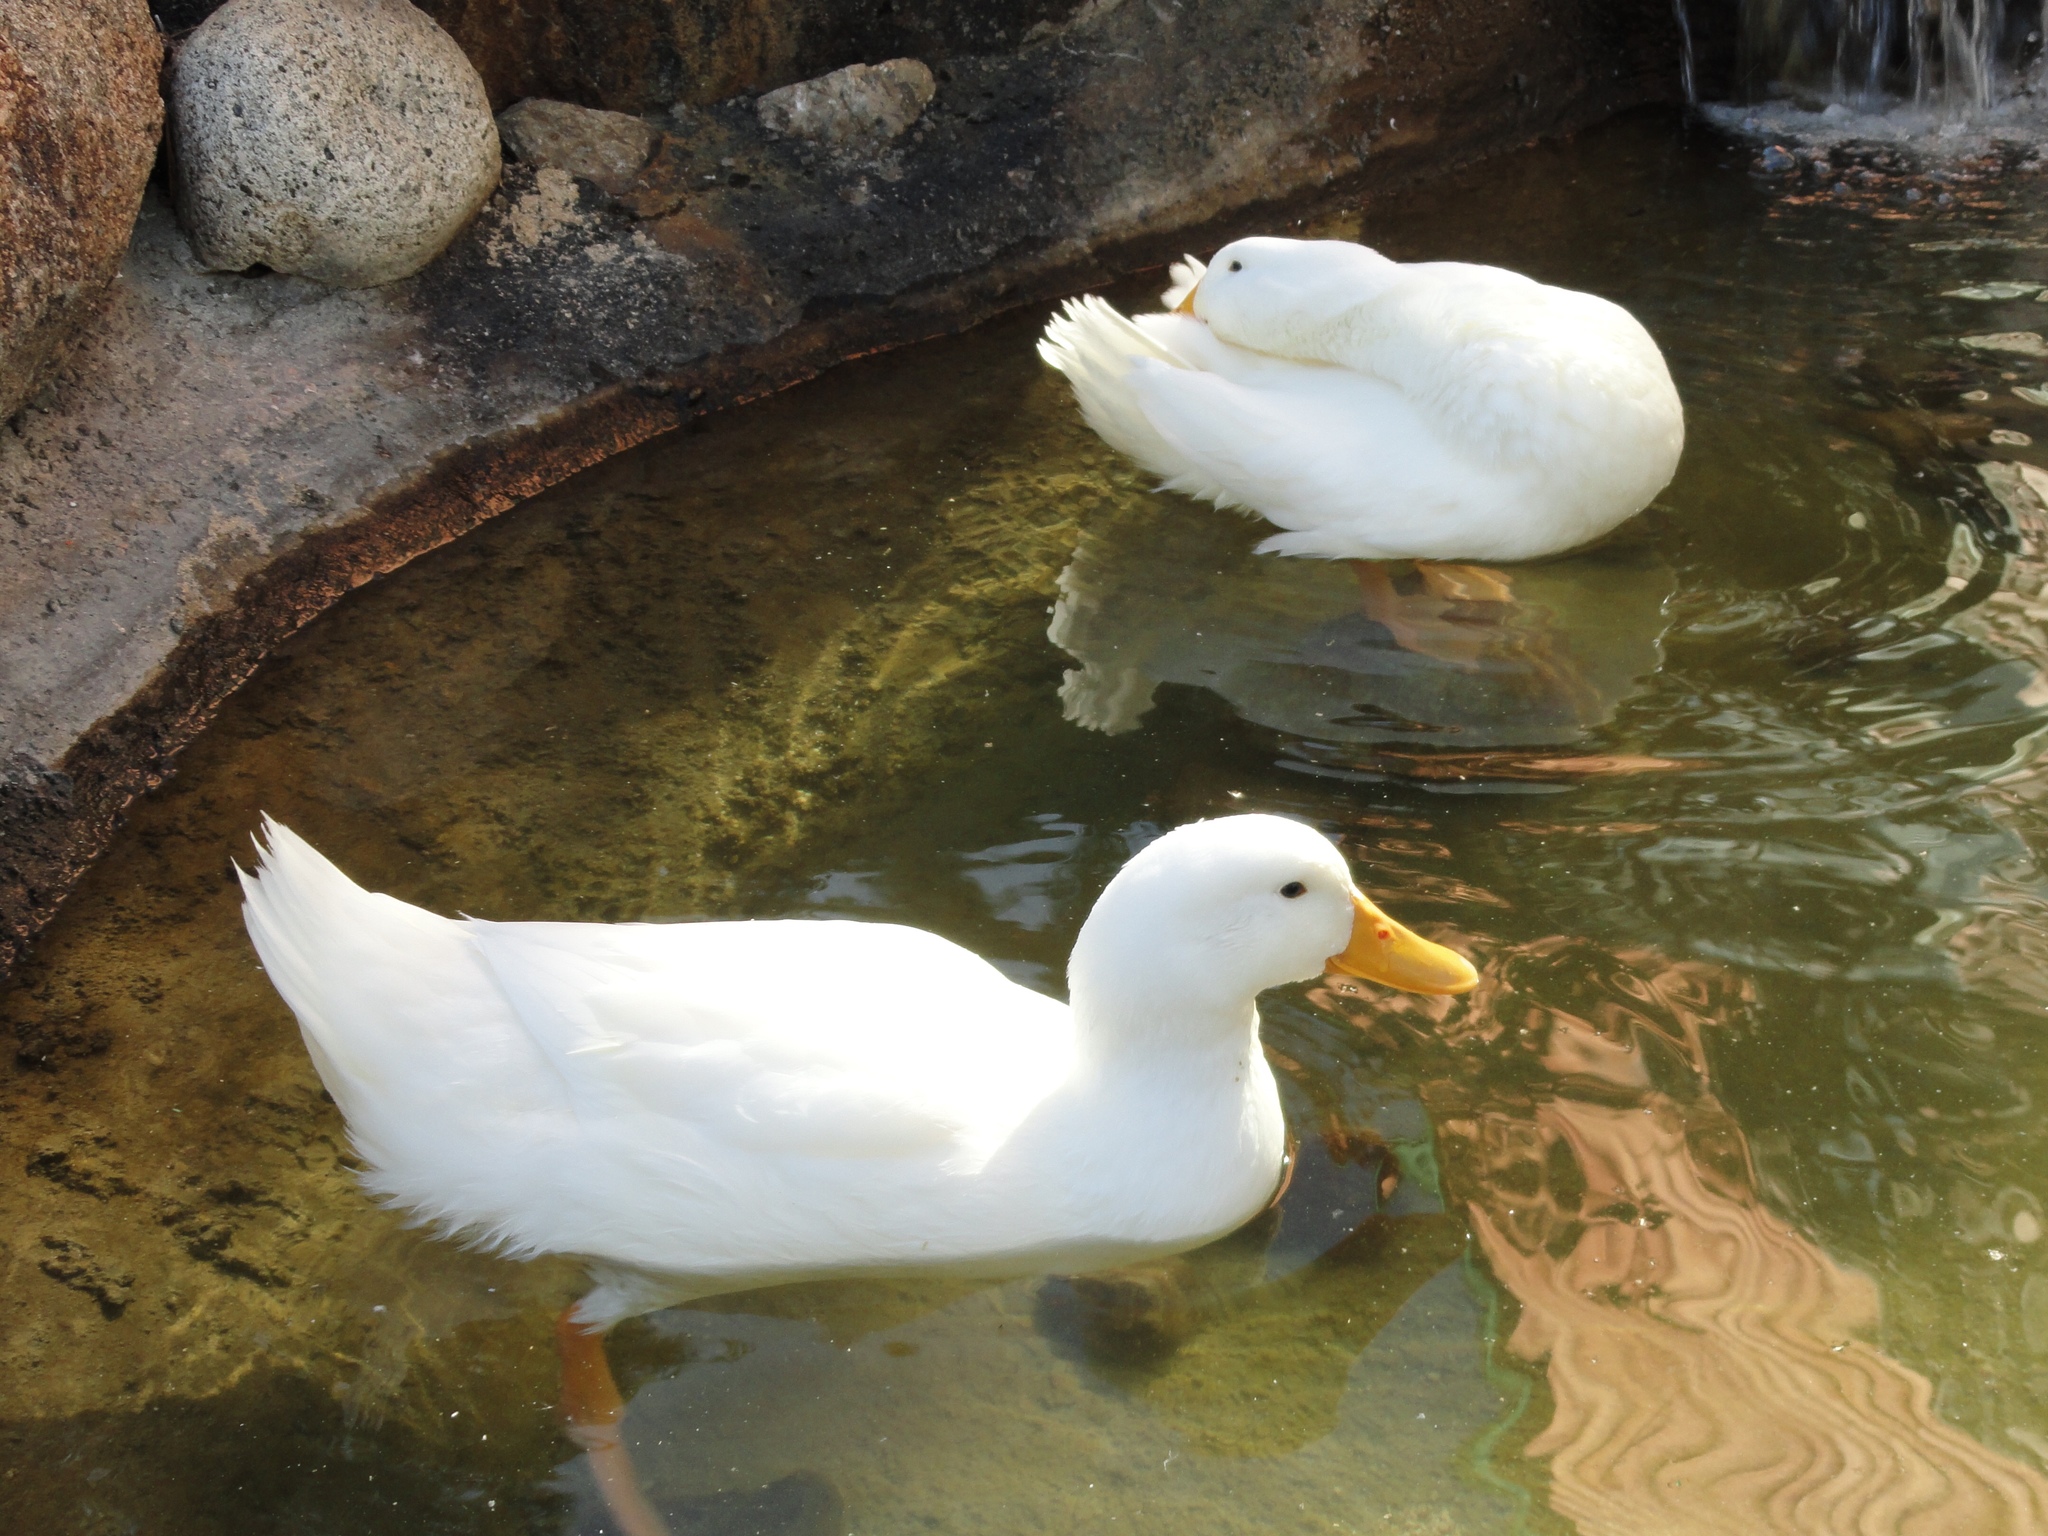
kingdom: Animalia
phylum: Chordata
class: Aves
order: Anseriformes
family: Anatidae
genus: Anas
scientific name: Anas platyrhynchos
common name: Mallard
